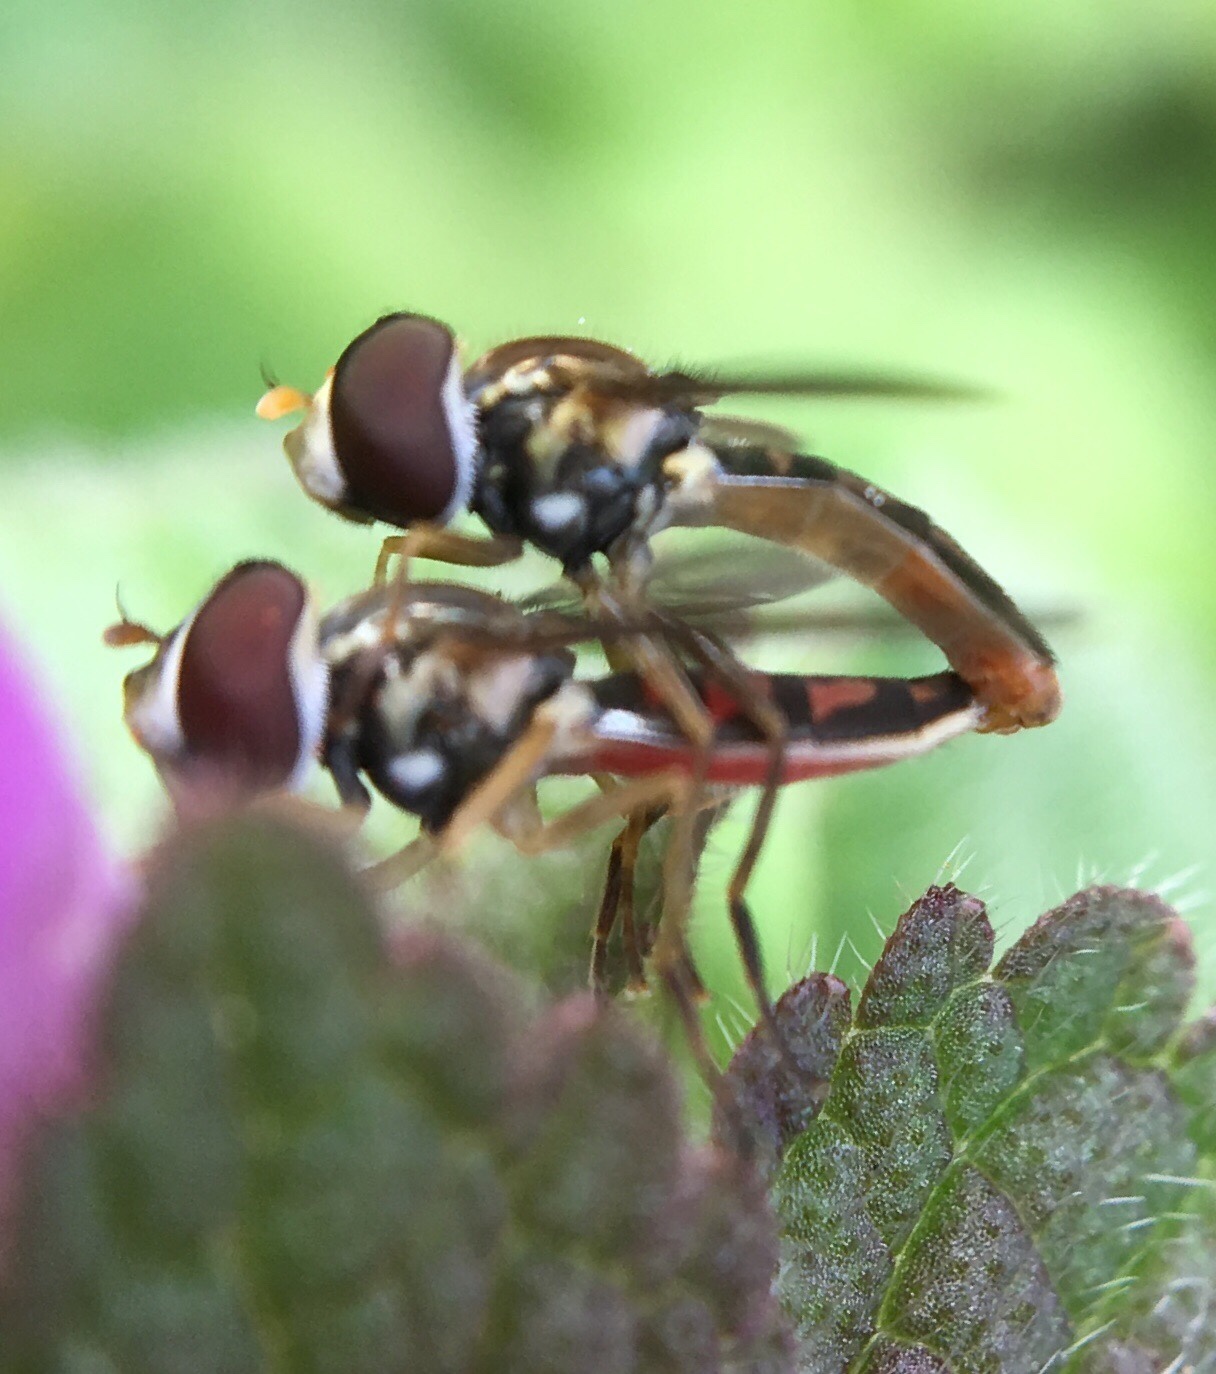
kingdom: Animalia
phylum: Arthropoda
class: Insecta
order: Diptera
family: Syrphidae
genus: Toxomerus
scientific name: Toxomerus marginatus
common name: Syrphid fly
